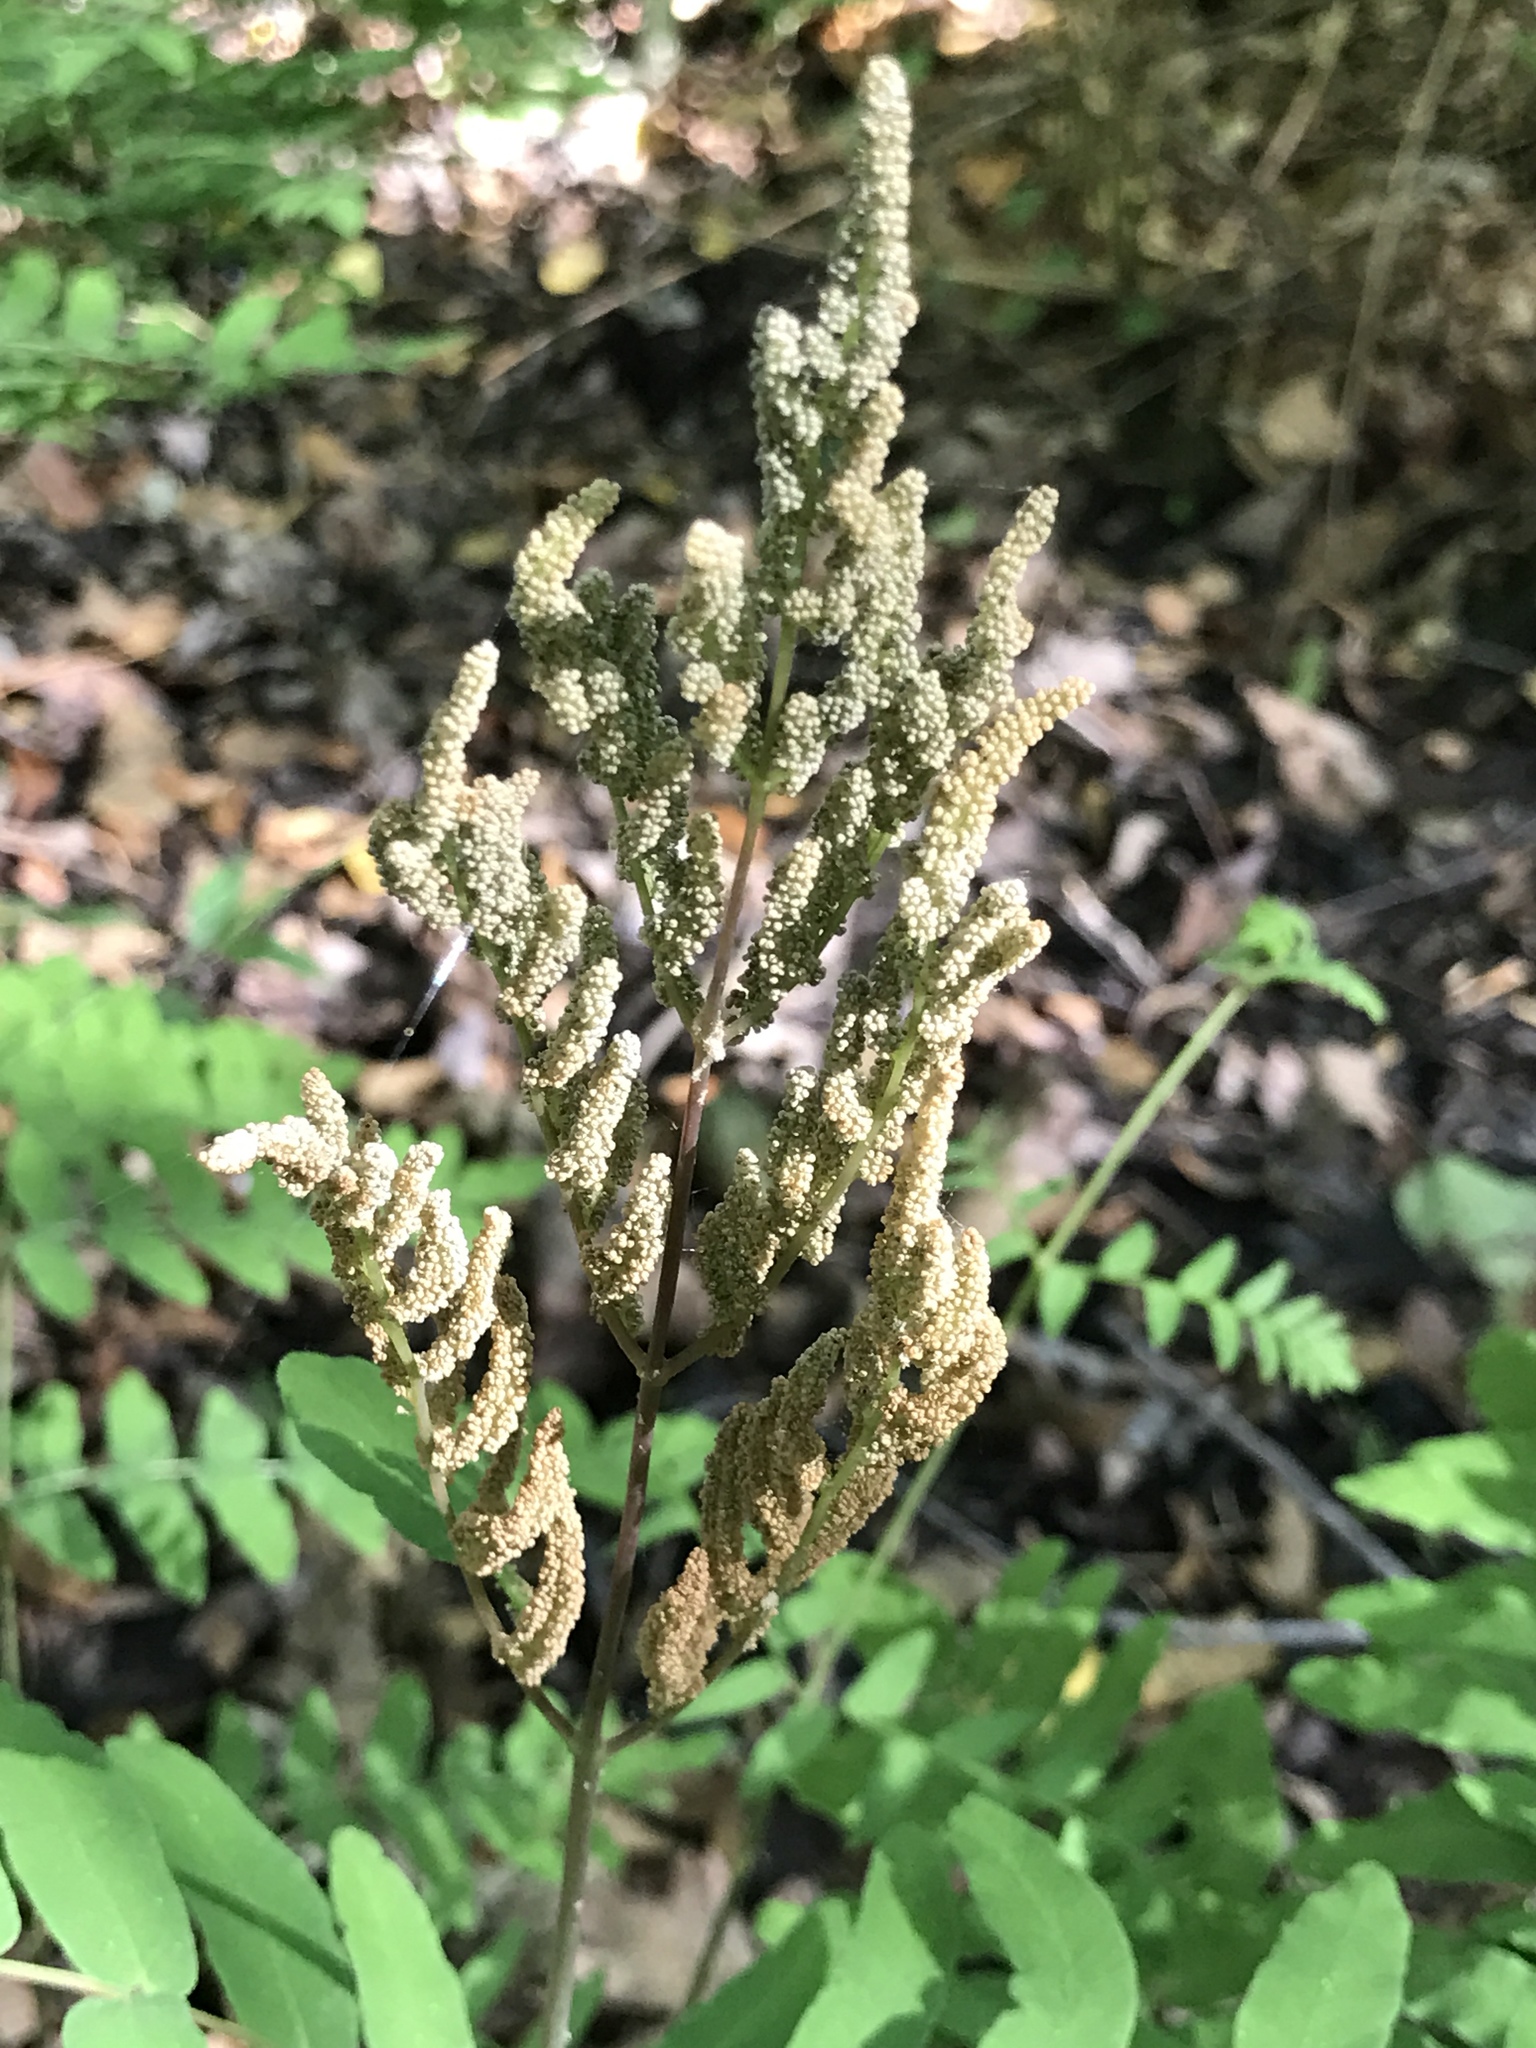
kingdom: Plantae
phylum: Tracheophyta
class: Polypodiopsida
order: Osmundales
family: Osmundaceae
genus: Osmunda
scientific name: Osmunda spectabilis
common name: American royal fern
